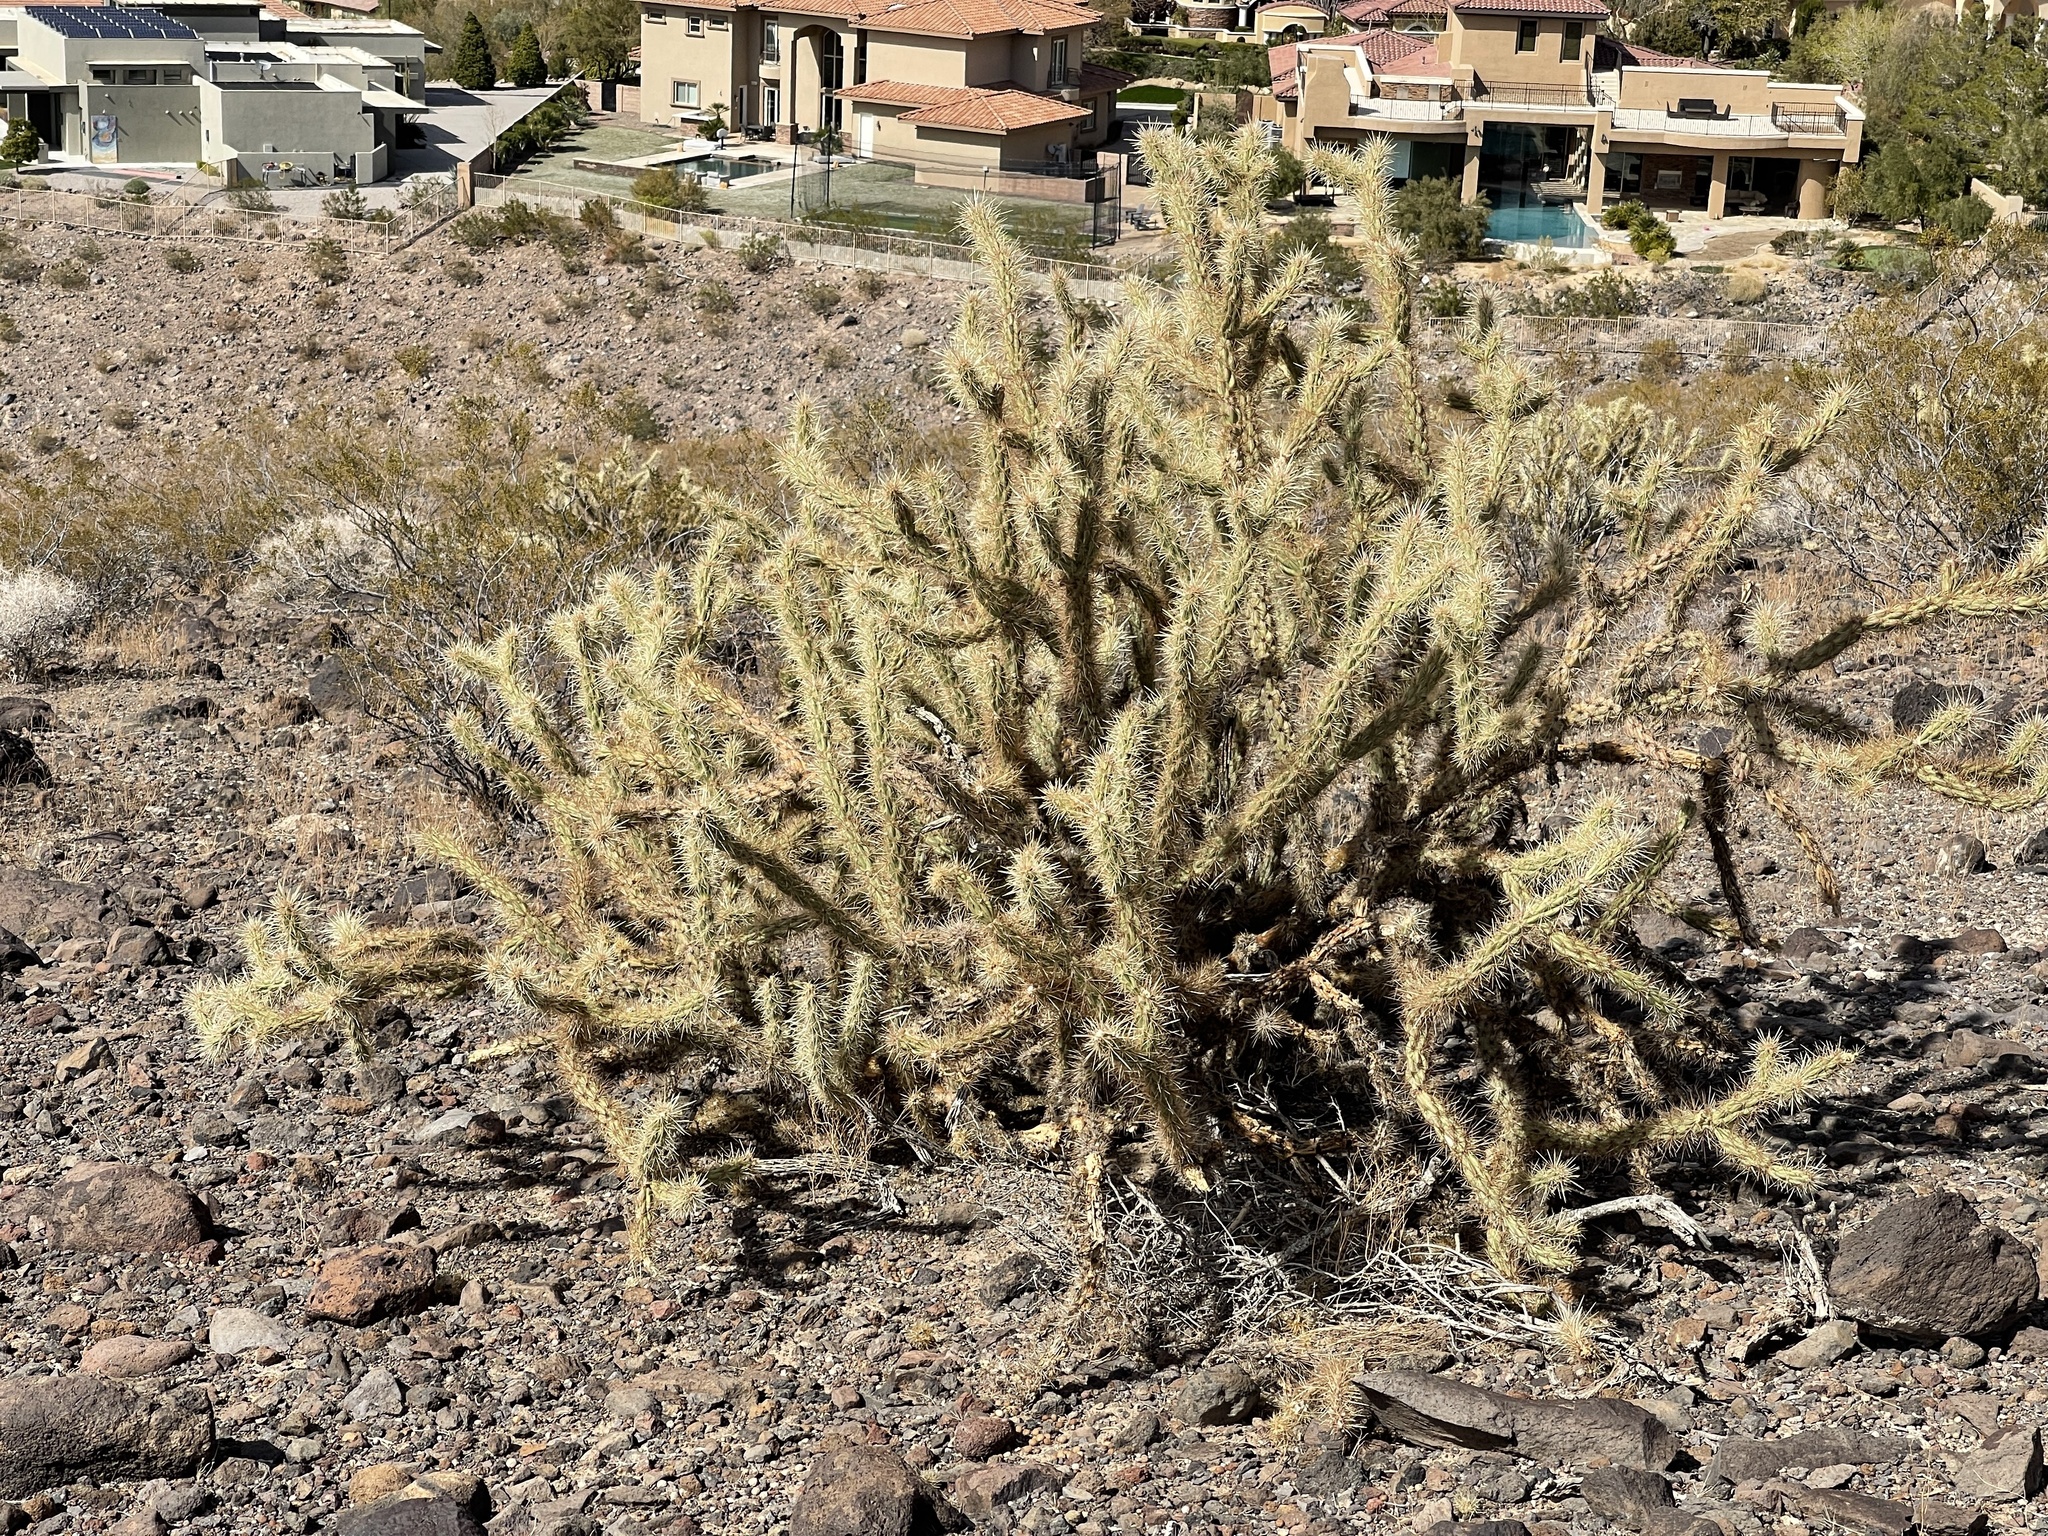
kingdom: Plantae
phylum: Tracheophyta
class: Magnoliopsida
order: Caryophyllales
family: Cactaceae
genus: Cylindropuntia
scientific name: Cylindropuntia acanthocarpa
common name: Buckhorn cholla
